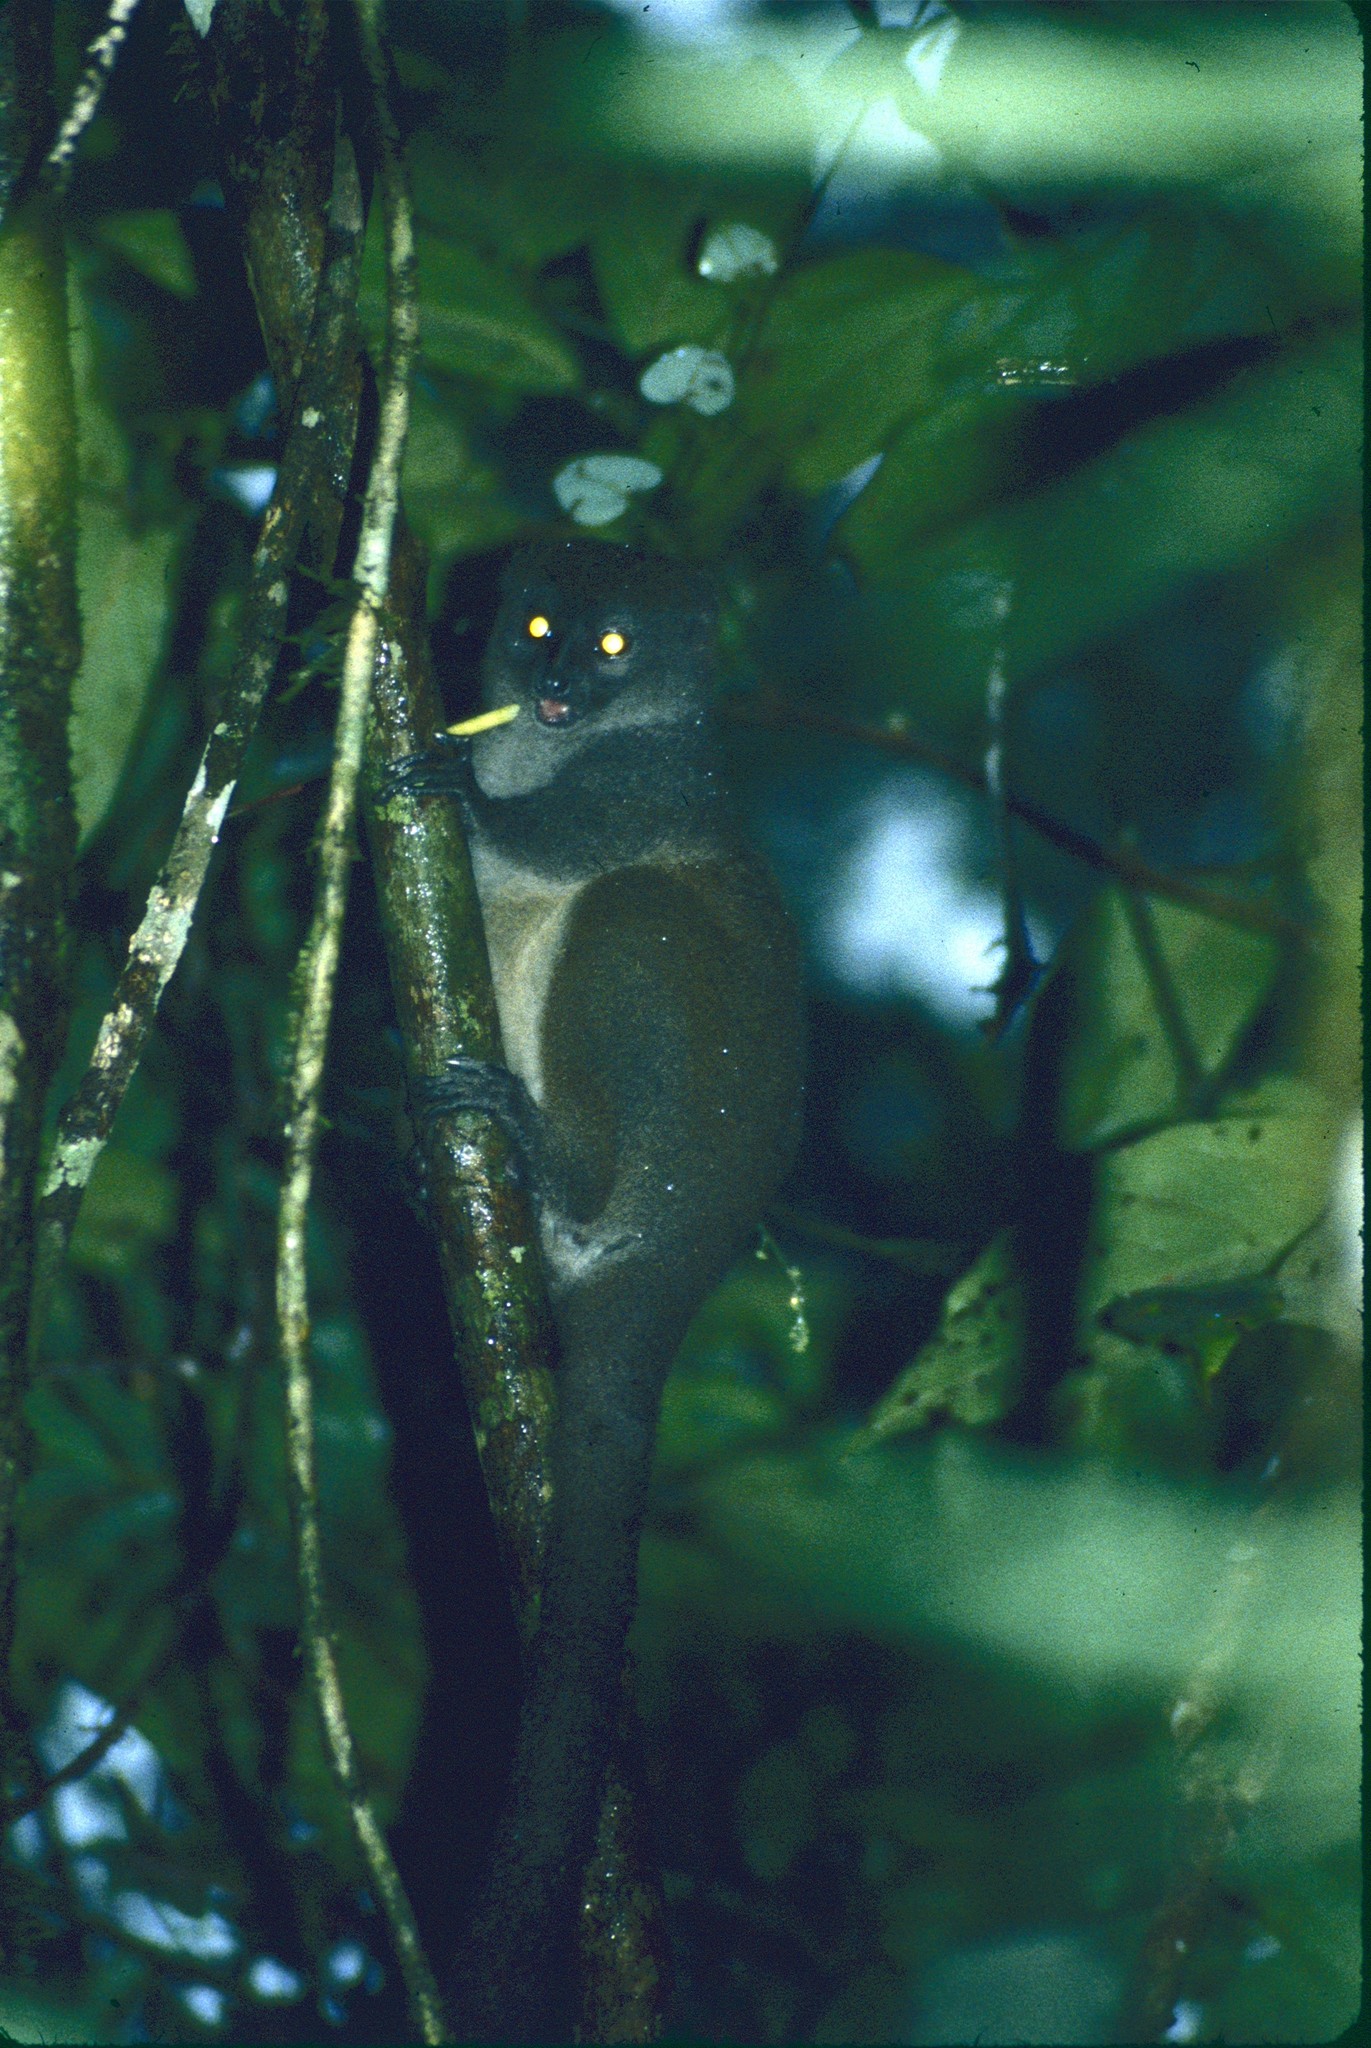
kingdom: Animalia
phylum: Chordata
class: Mammalia
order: Primates
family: Lemuridae
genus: Hapalemur
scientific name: Hapalemur griseus
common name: Gray bamboo lemur
